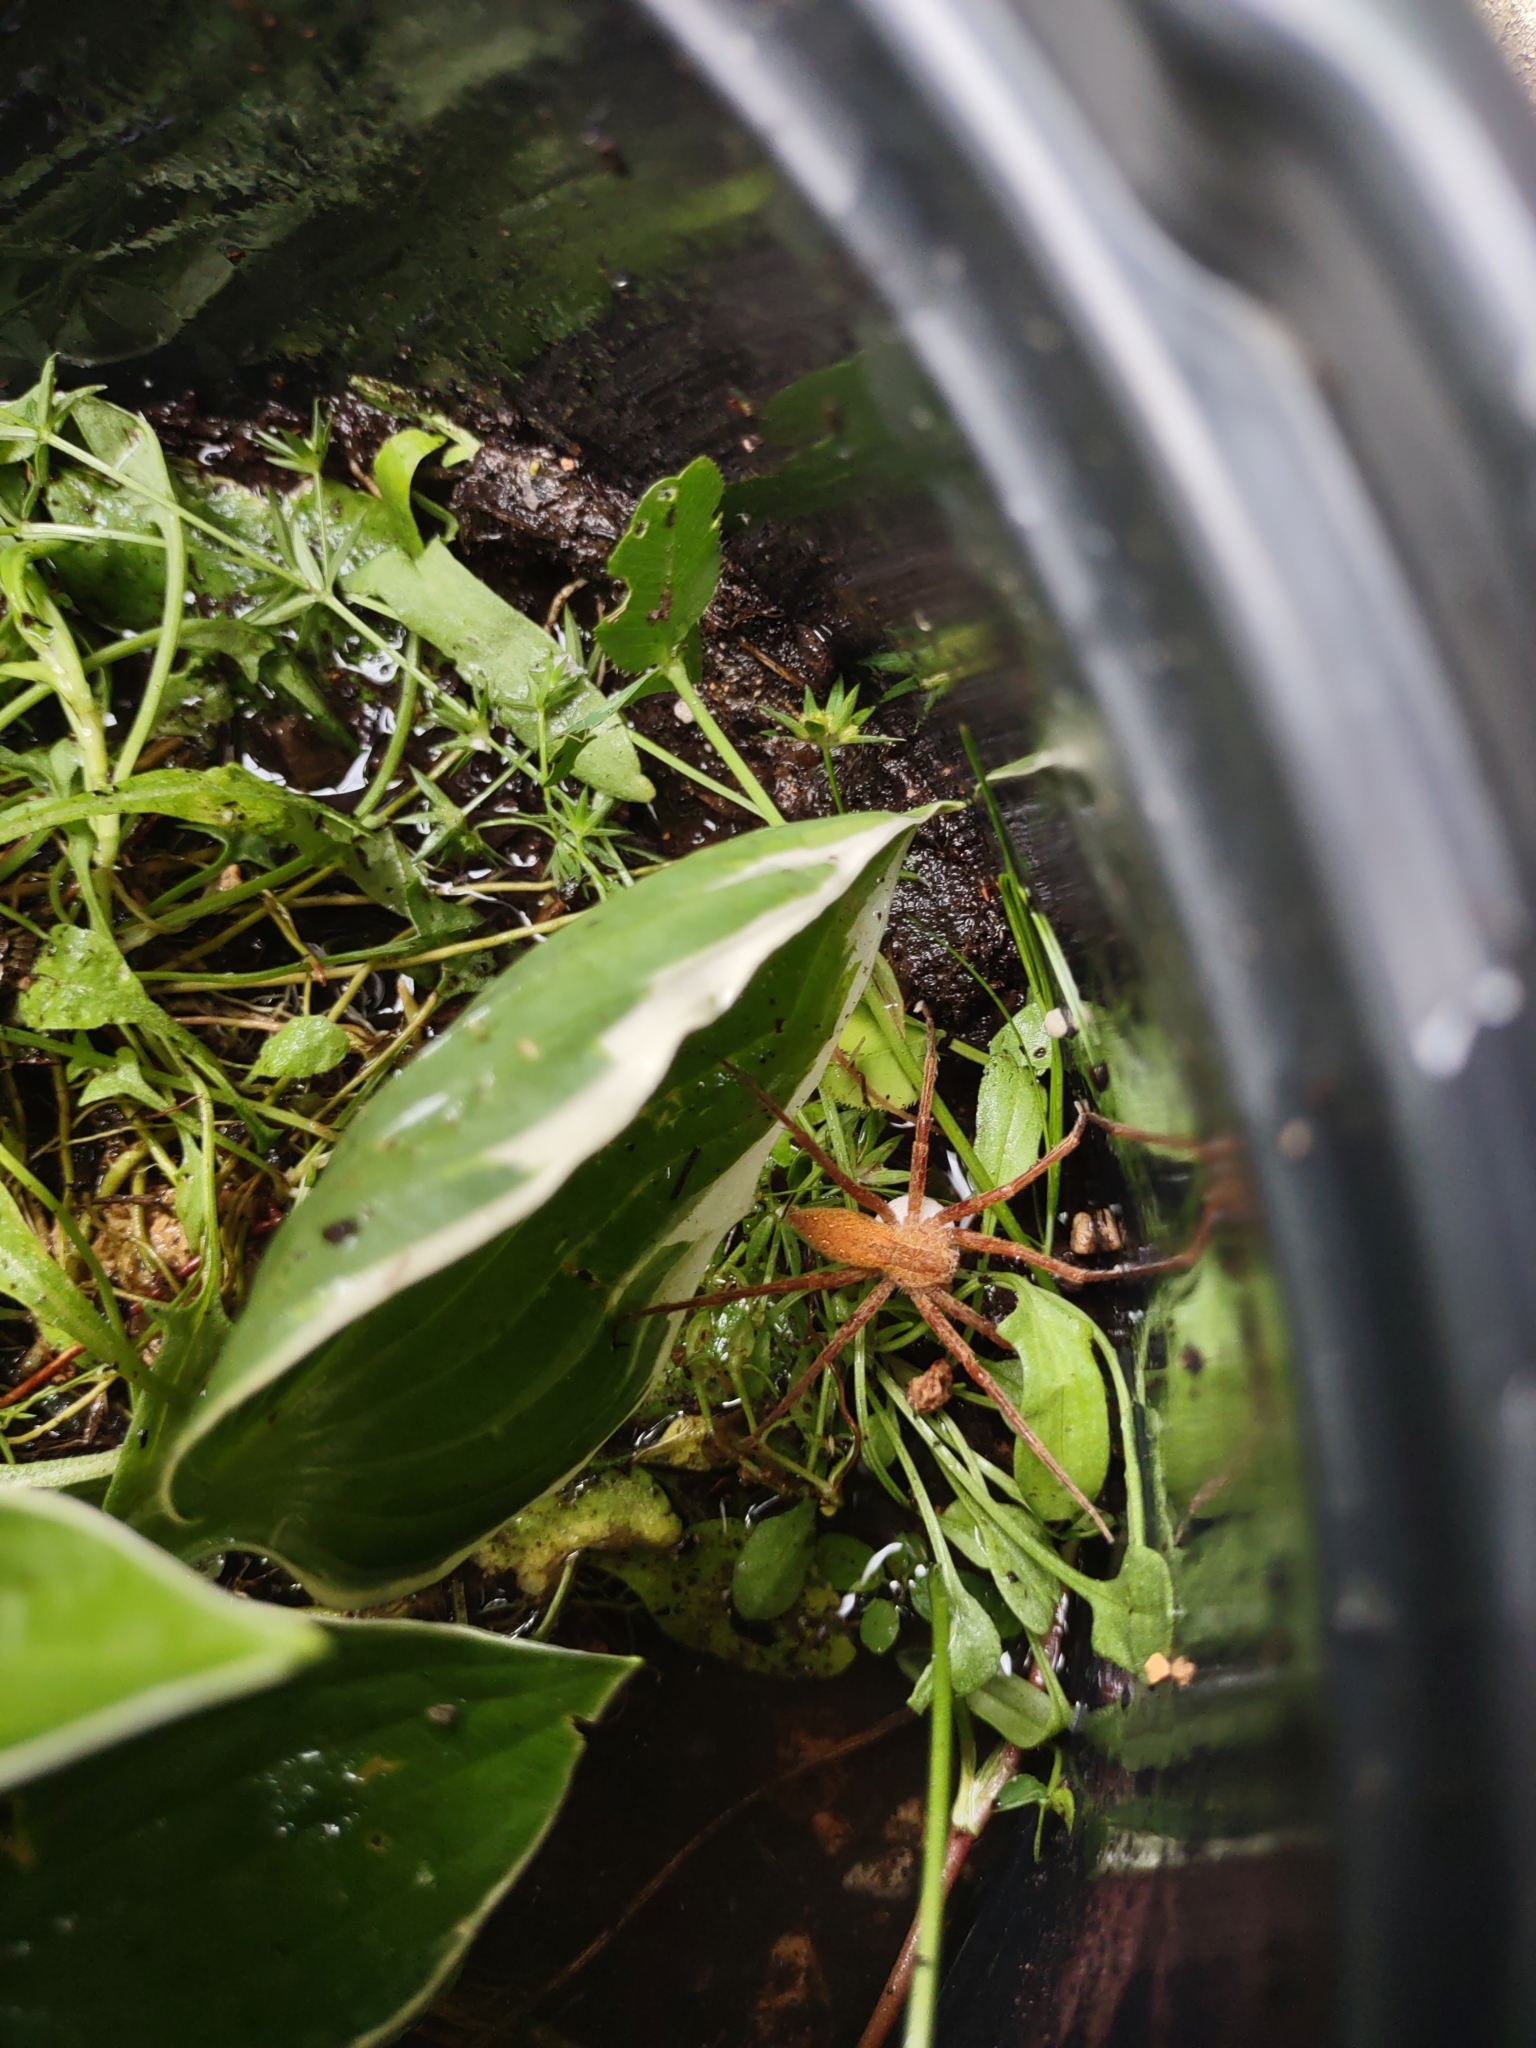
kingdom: Animalia
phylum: Arthropoda
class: Arachnida
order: Araneae
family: Pisauridae
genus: Pisaurina
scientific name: Pisaurina mira
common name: American nursery web spider
